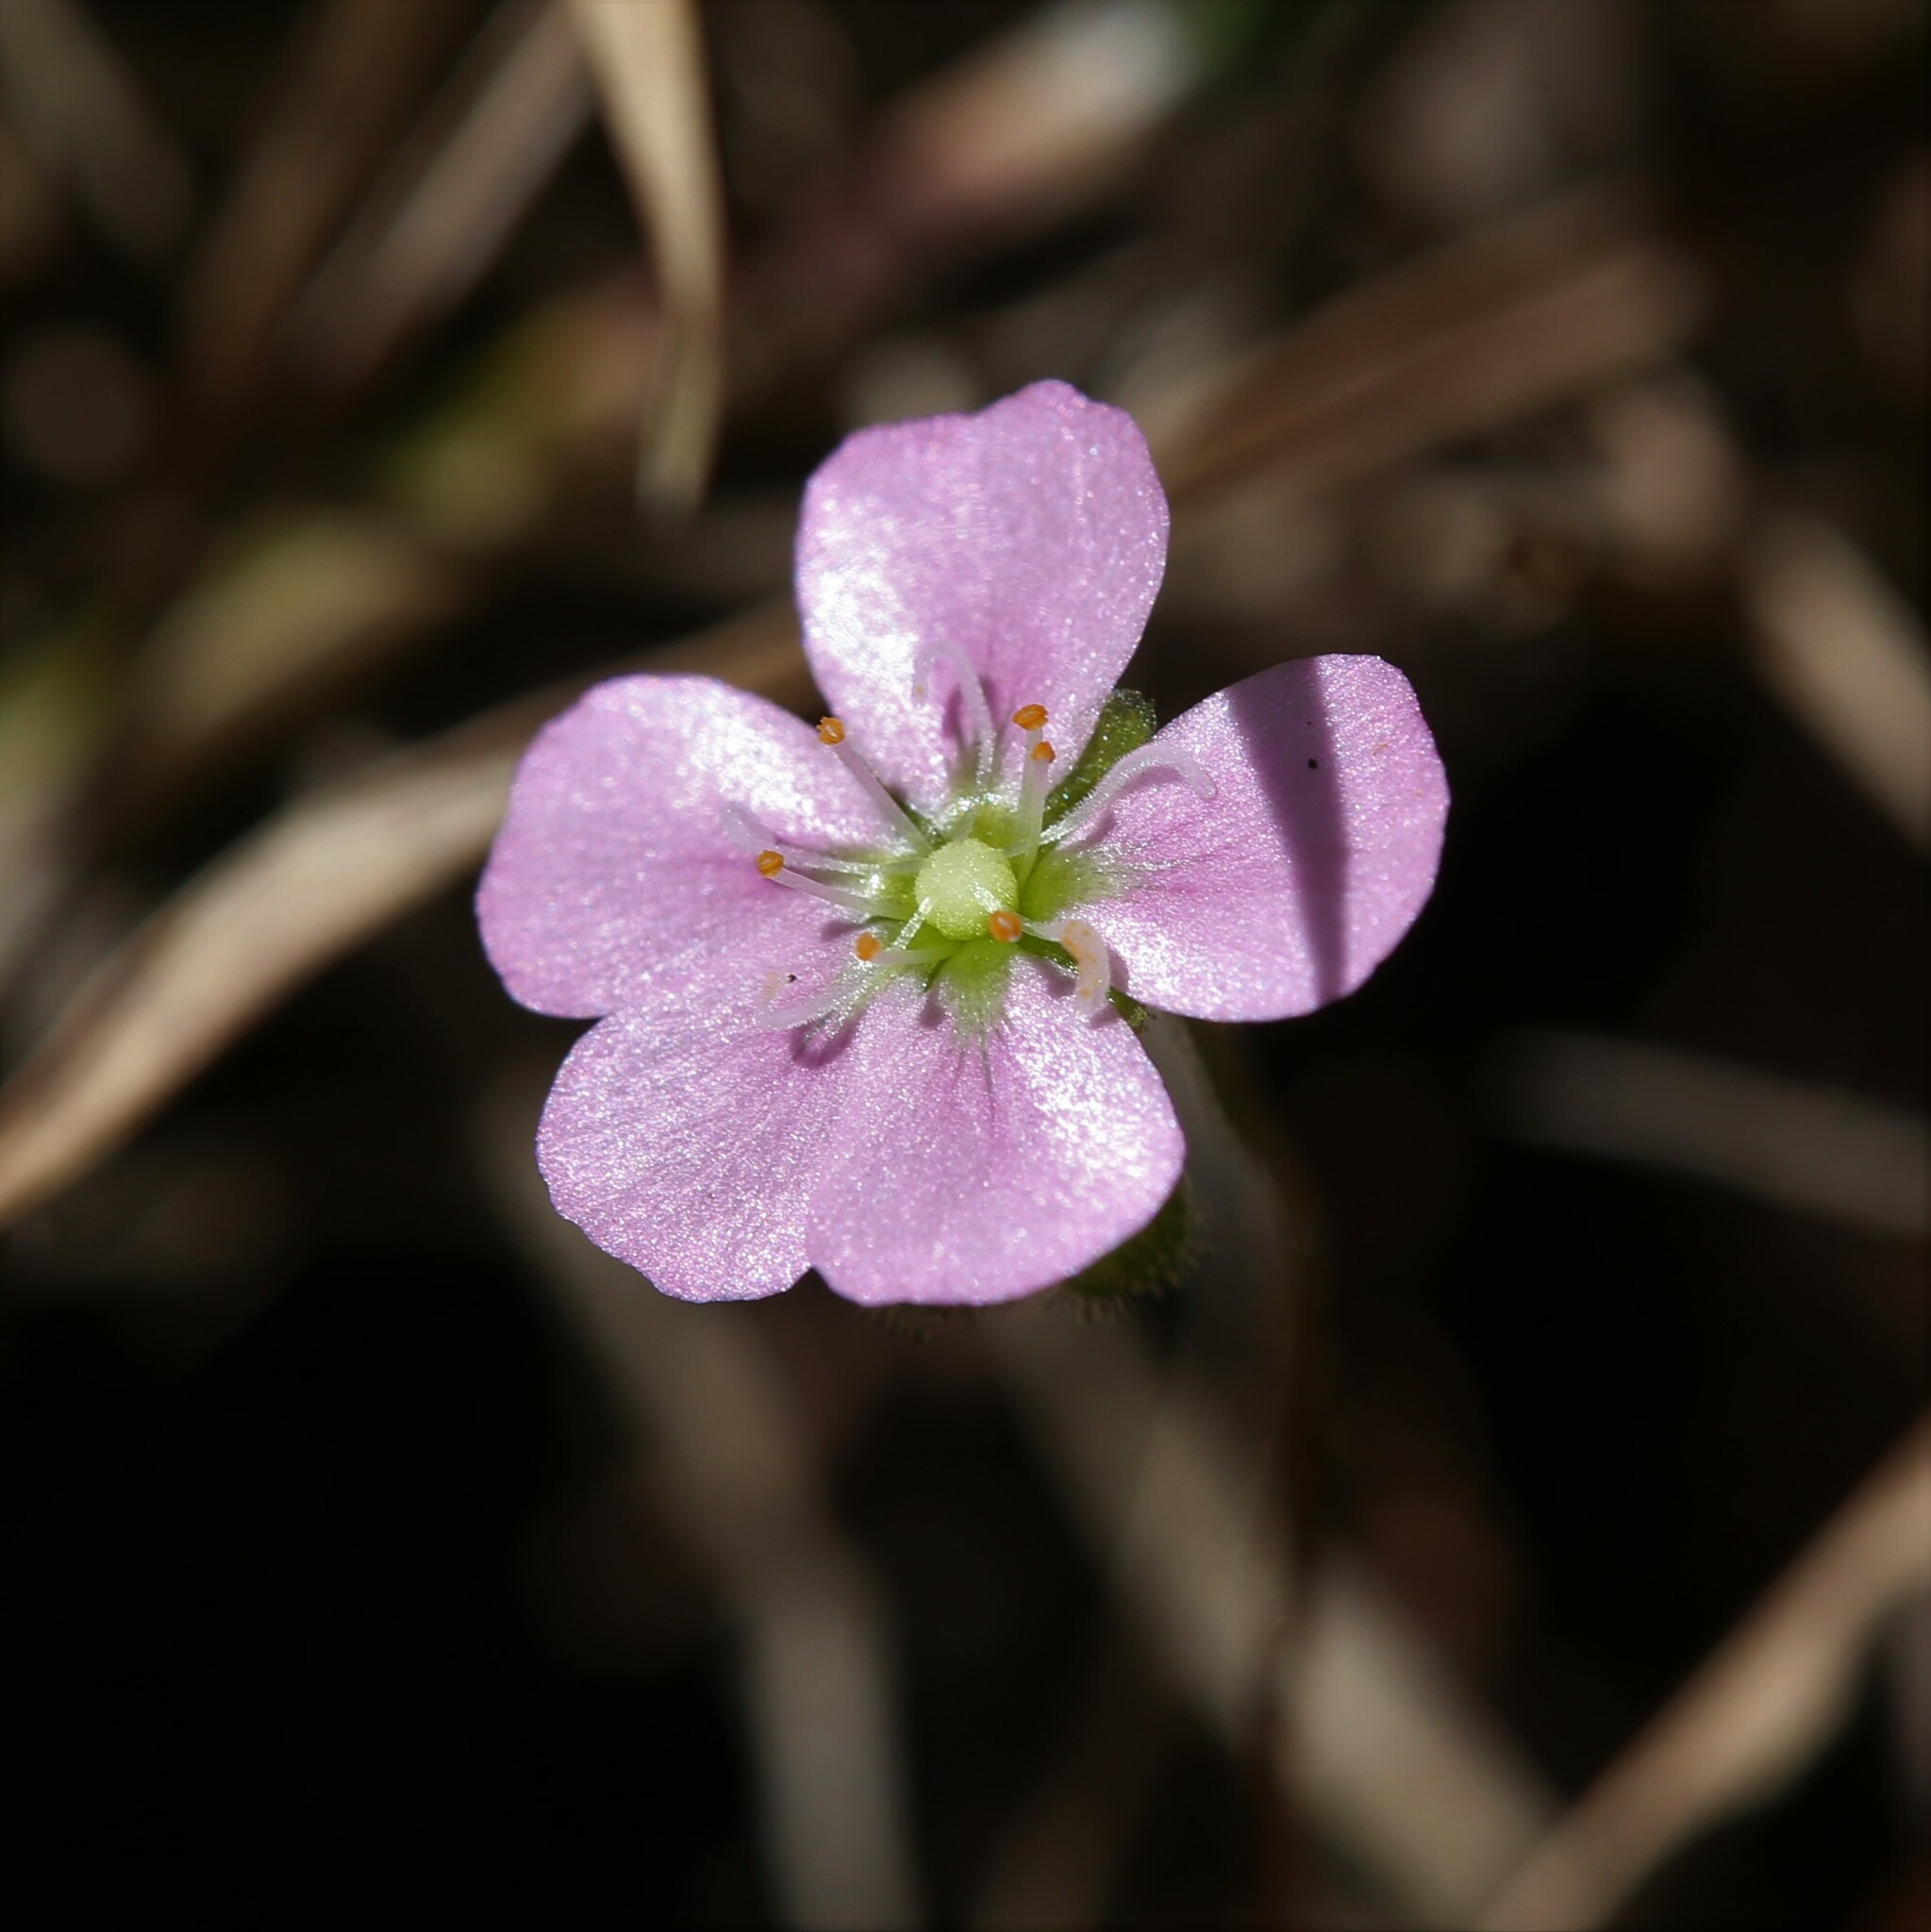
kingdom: Plantae
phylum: Tracheophyta
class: Magnoliopsida
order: Caryophyllales
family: Droseraceae
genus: Drosera
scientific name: Drosera pulchella
